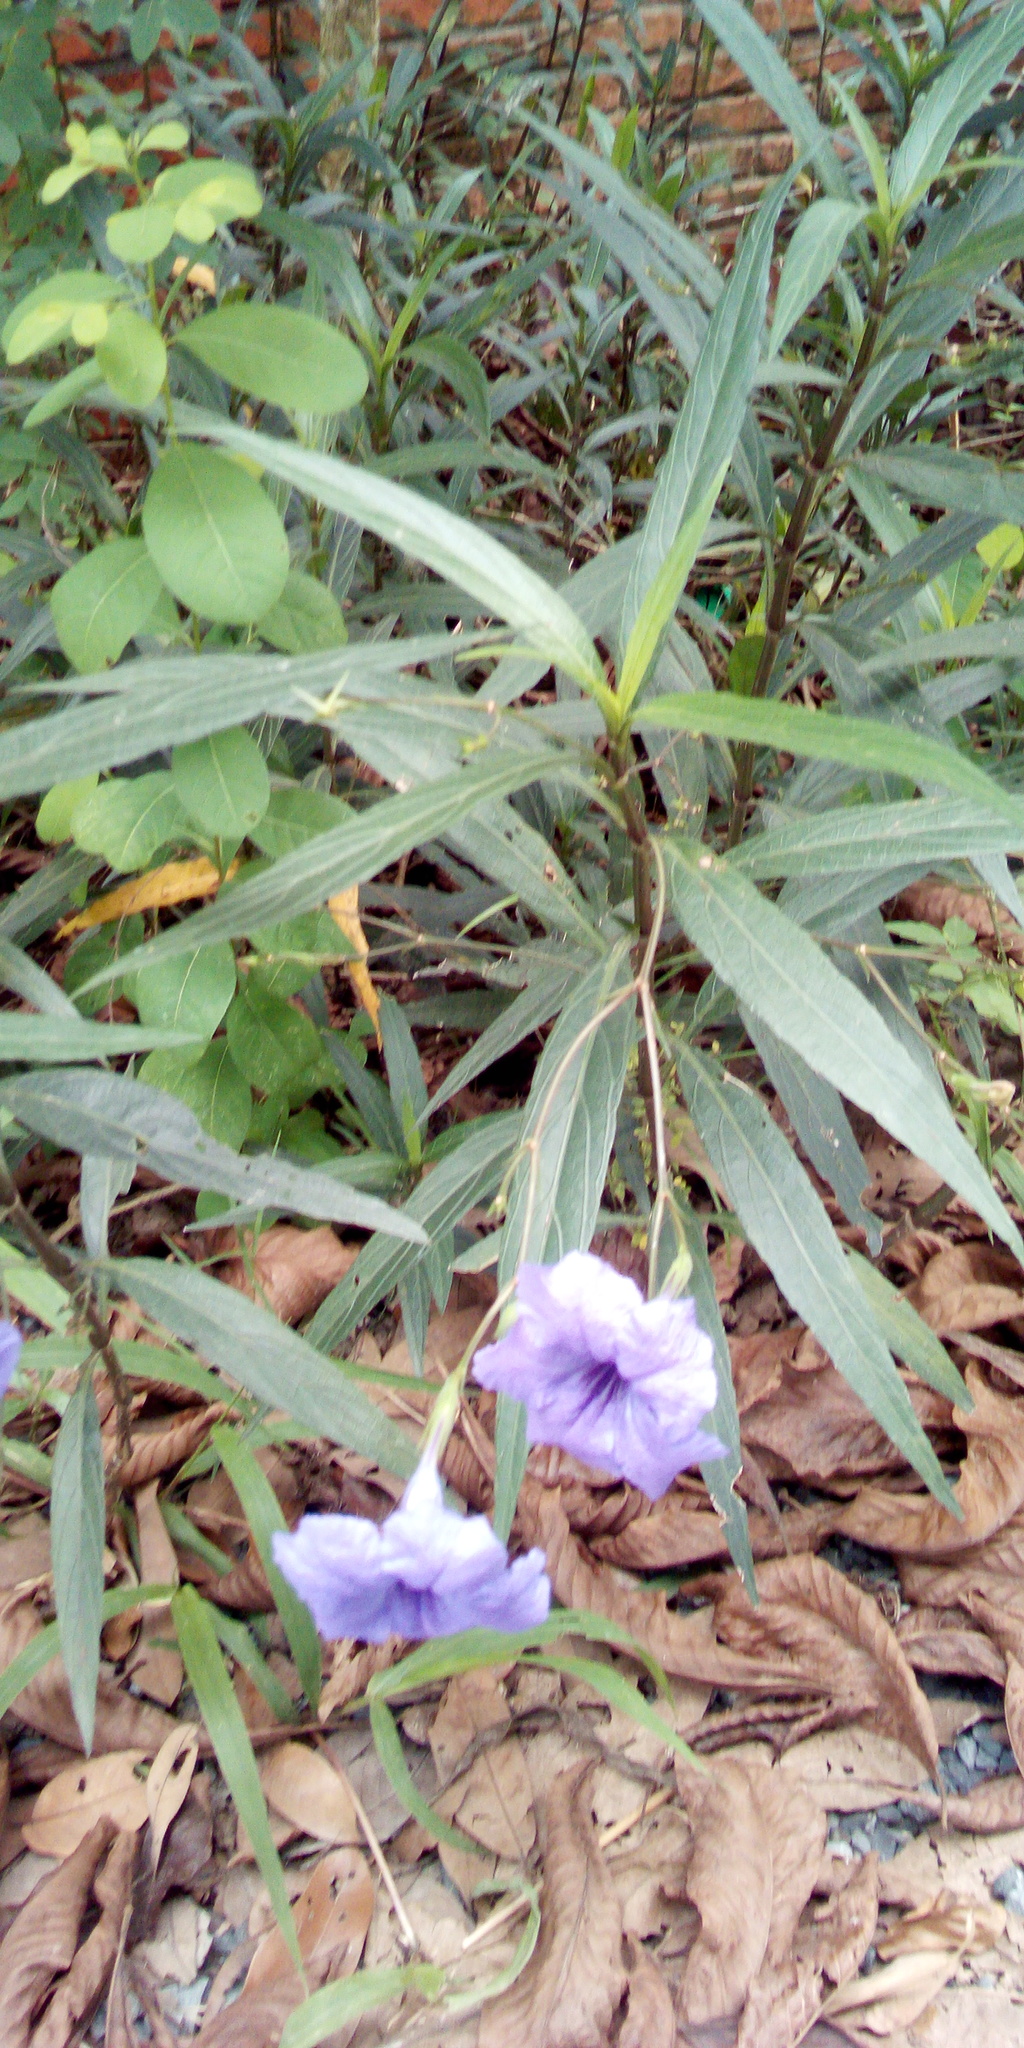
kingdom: Plantae
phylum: Tracheophyta
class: Magnoliopsida
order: Lamiales
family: Acanthaceae
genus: Ruellia
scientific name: Ruellia simplex
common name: Softseed wild petunia
